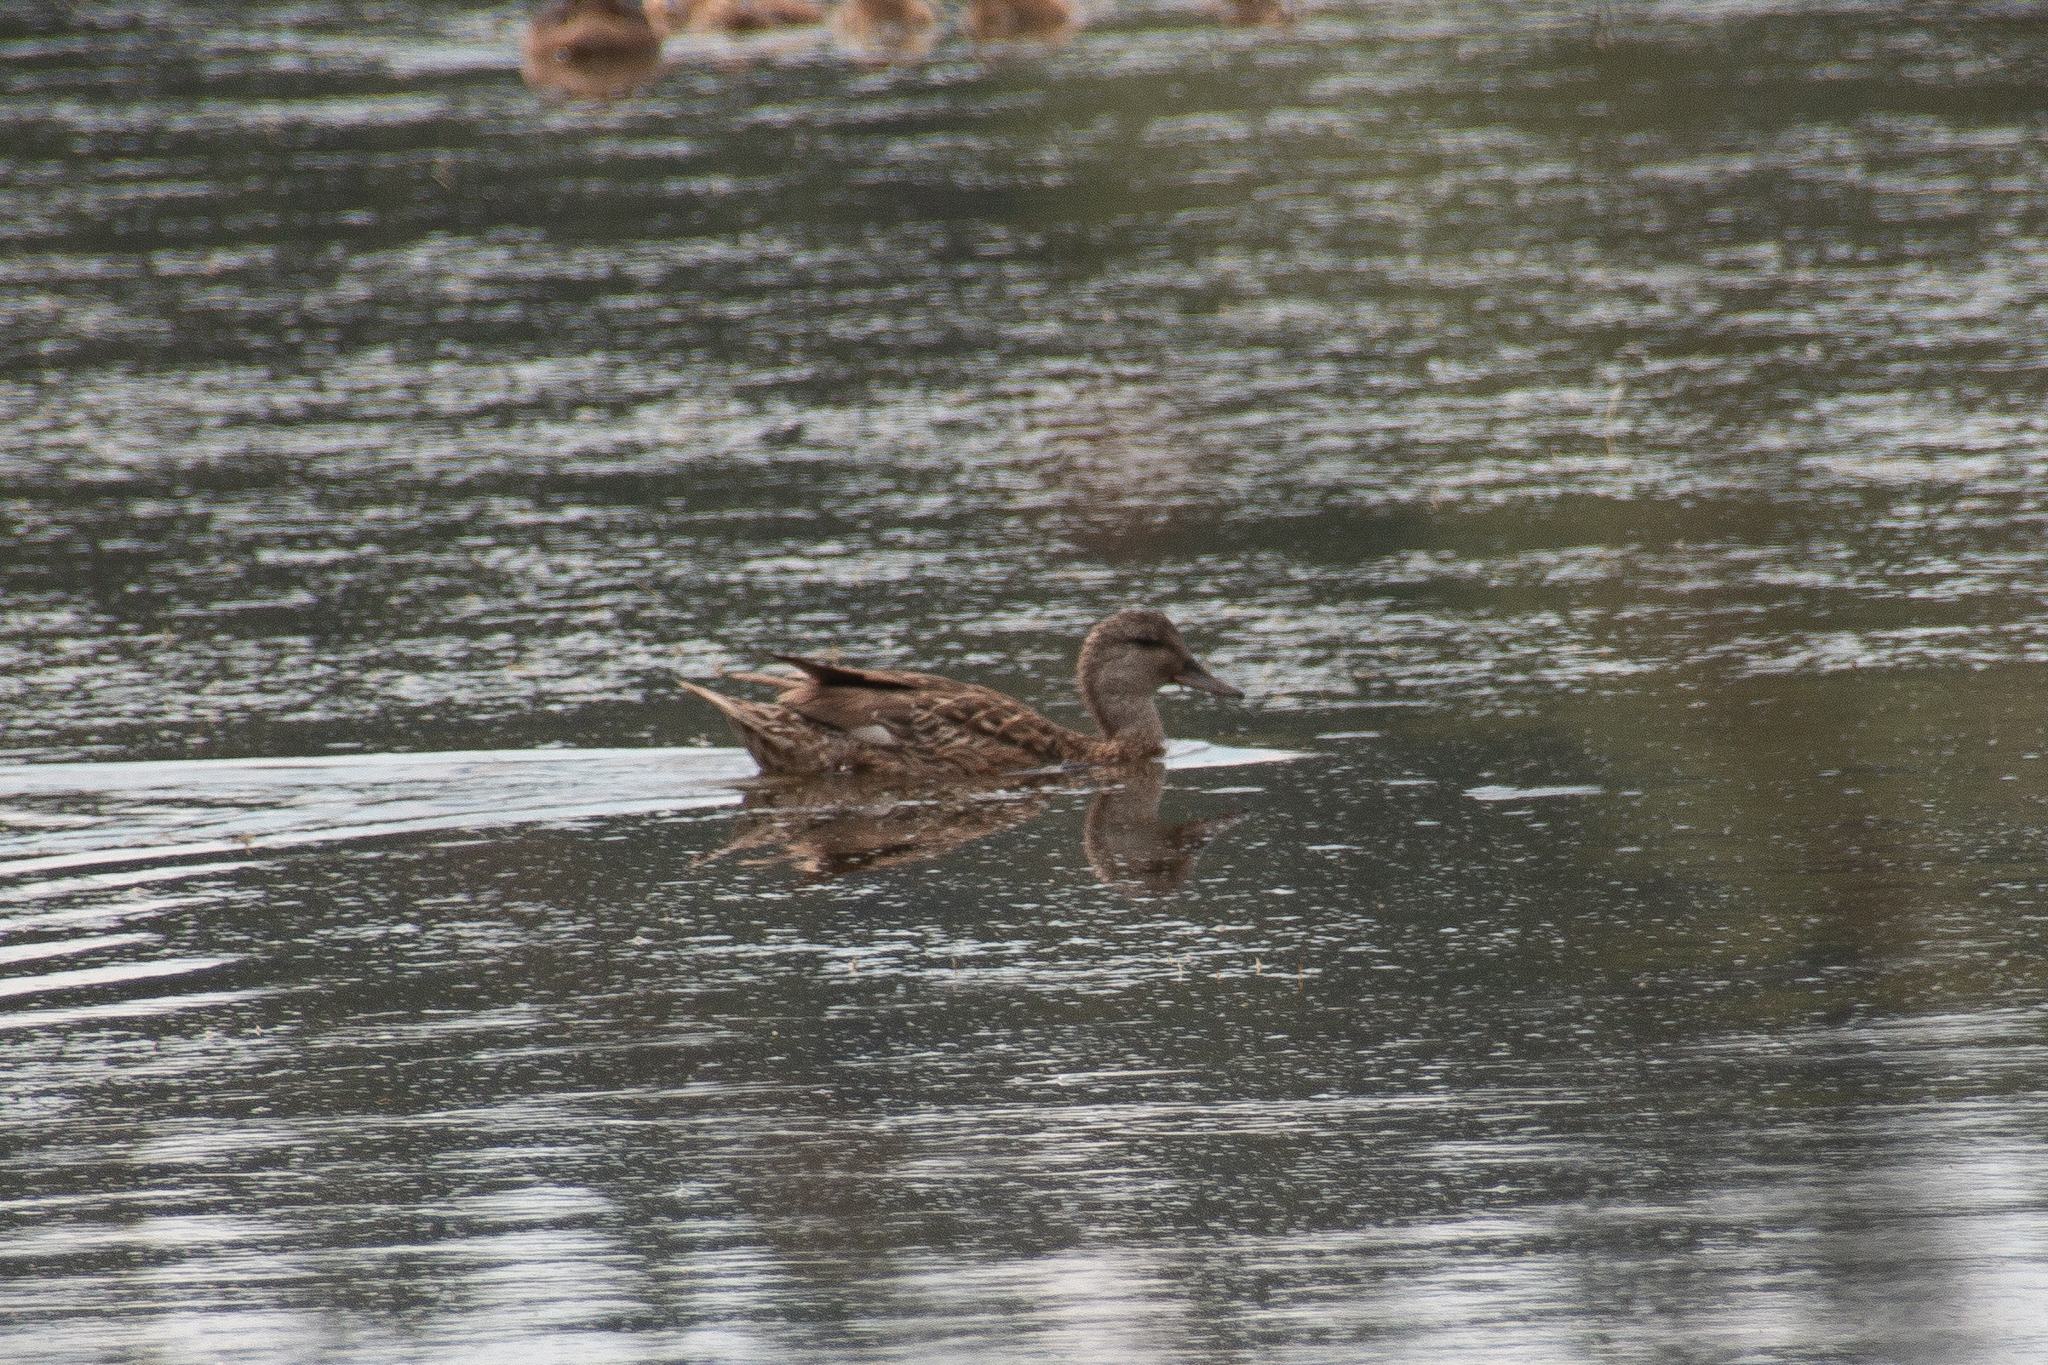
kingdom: Animalia
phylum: Chordata
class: Aves
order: Anseriformes
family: Anatidae
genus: Mareca
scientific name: Mareca strepera
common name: Gadwall
